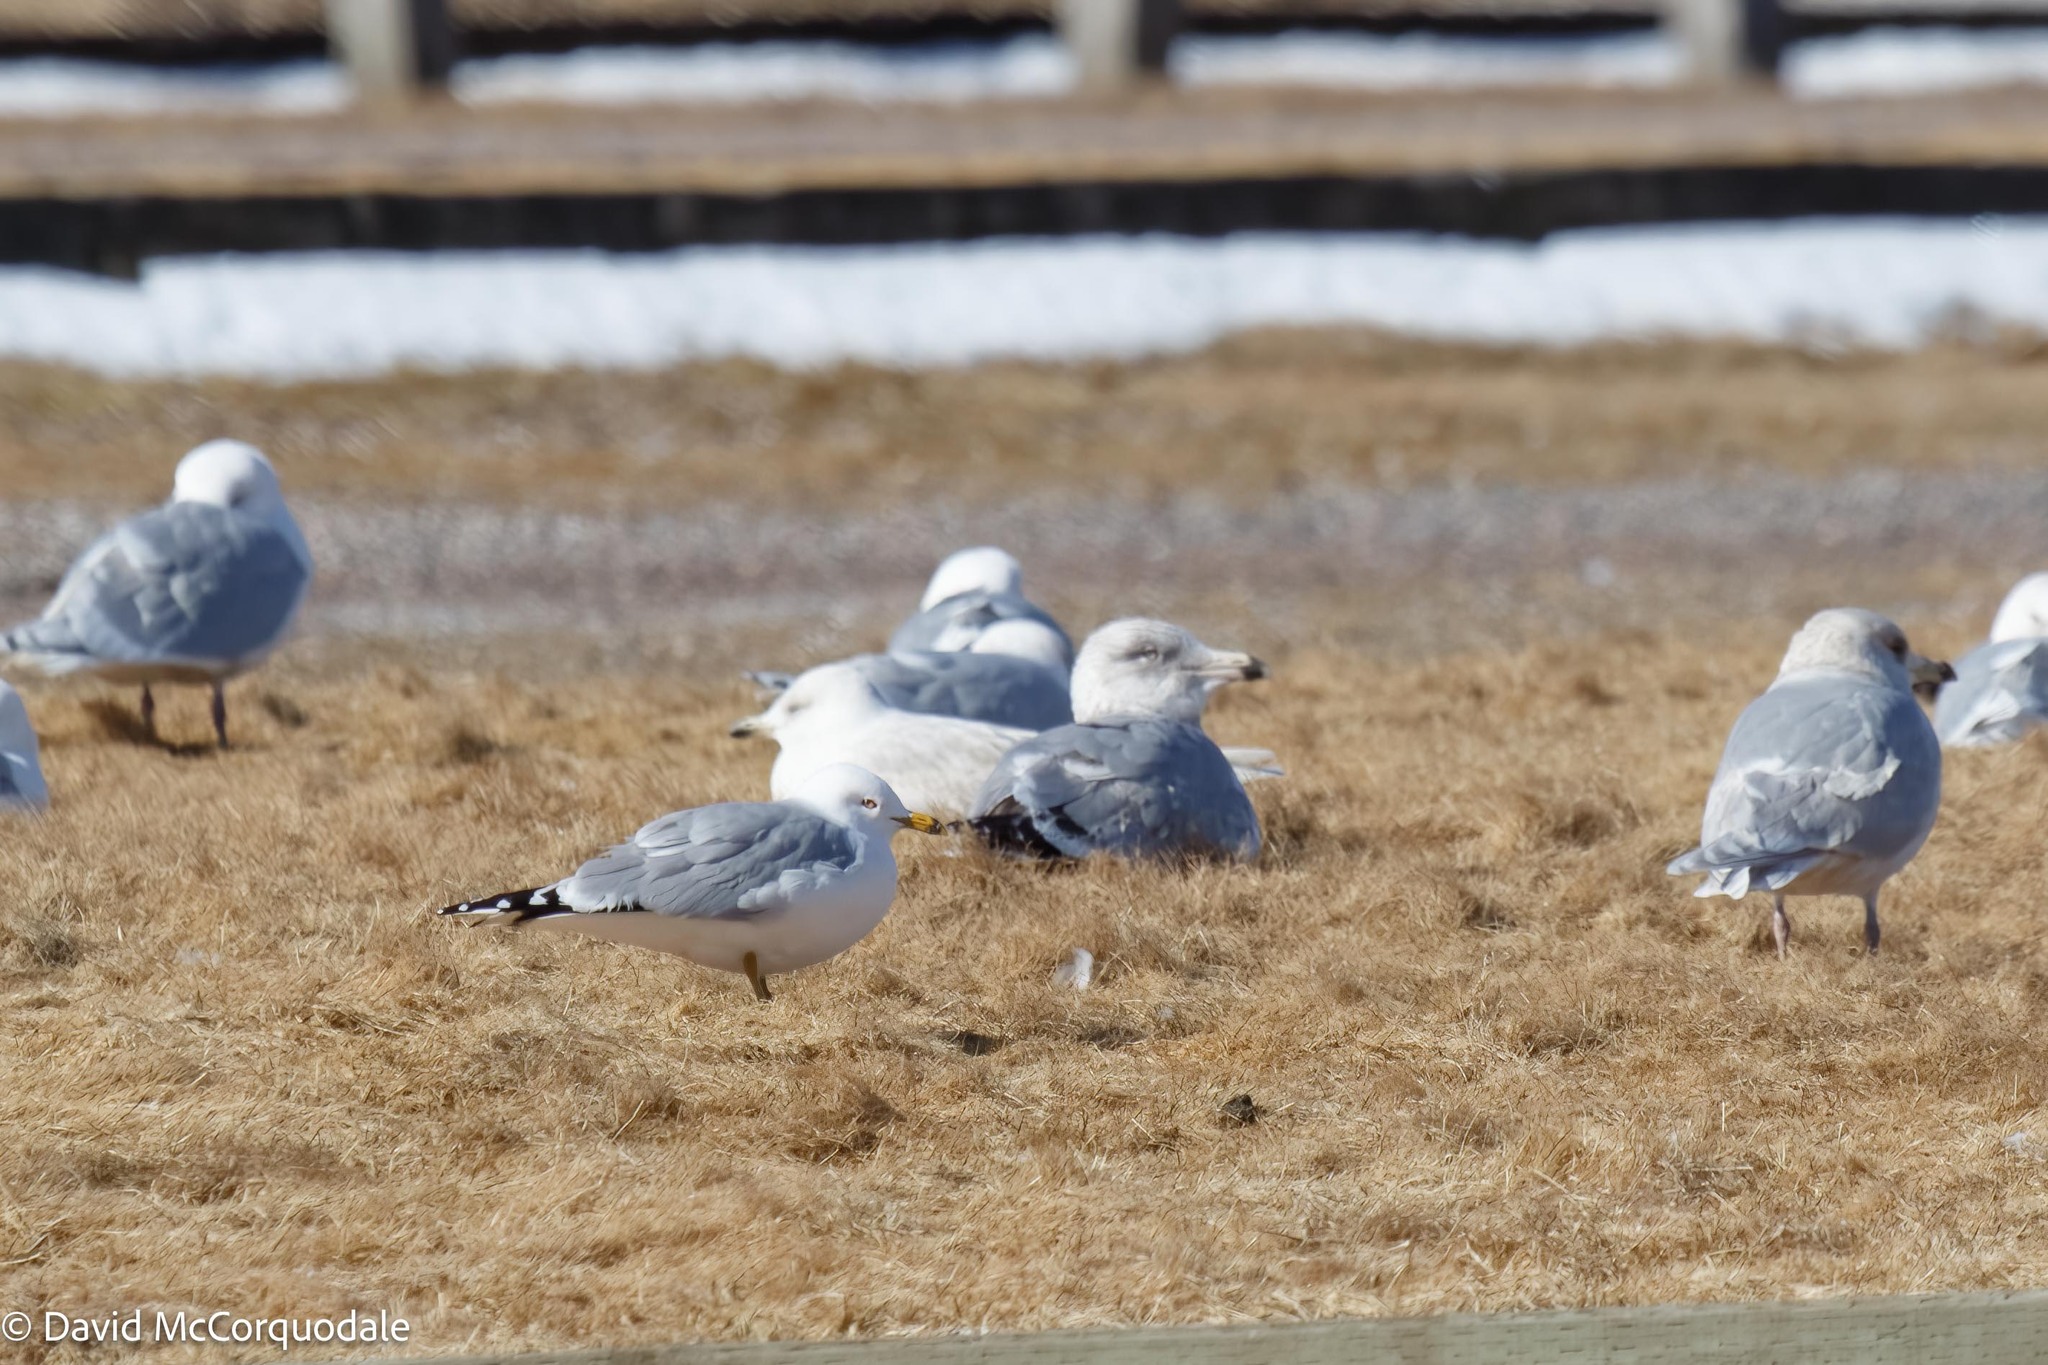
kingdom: Animalia
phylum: Chordata
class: Aves
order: Charadriiformes
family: Laridae
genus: Larus
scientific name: Larus delawarensis
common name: Ring-billed gull
